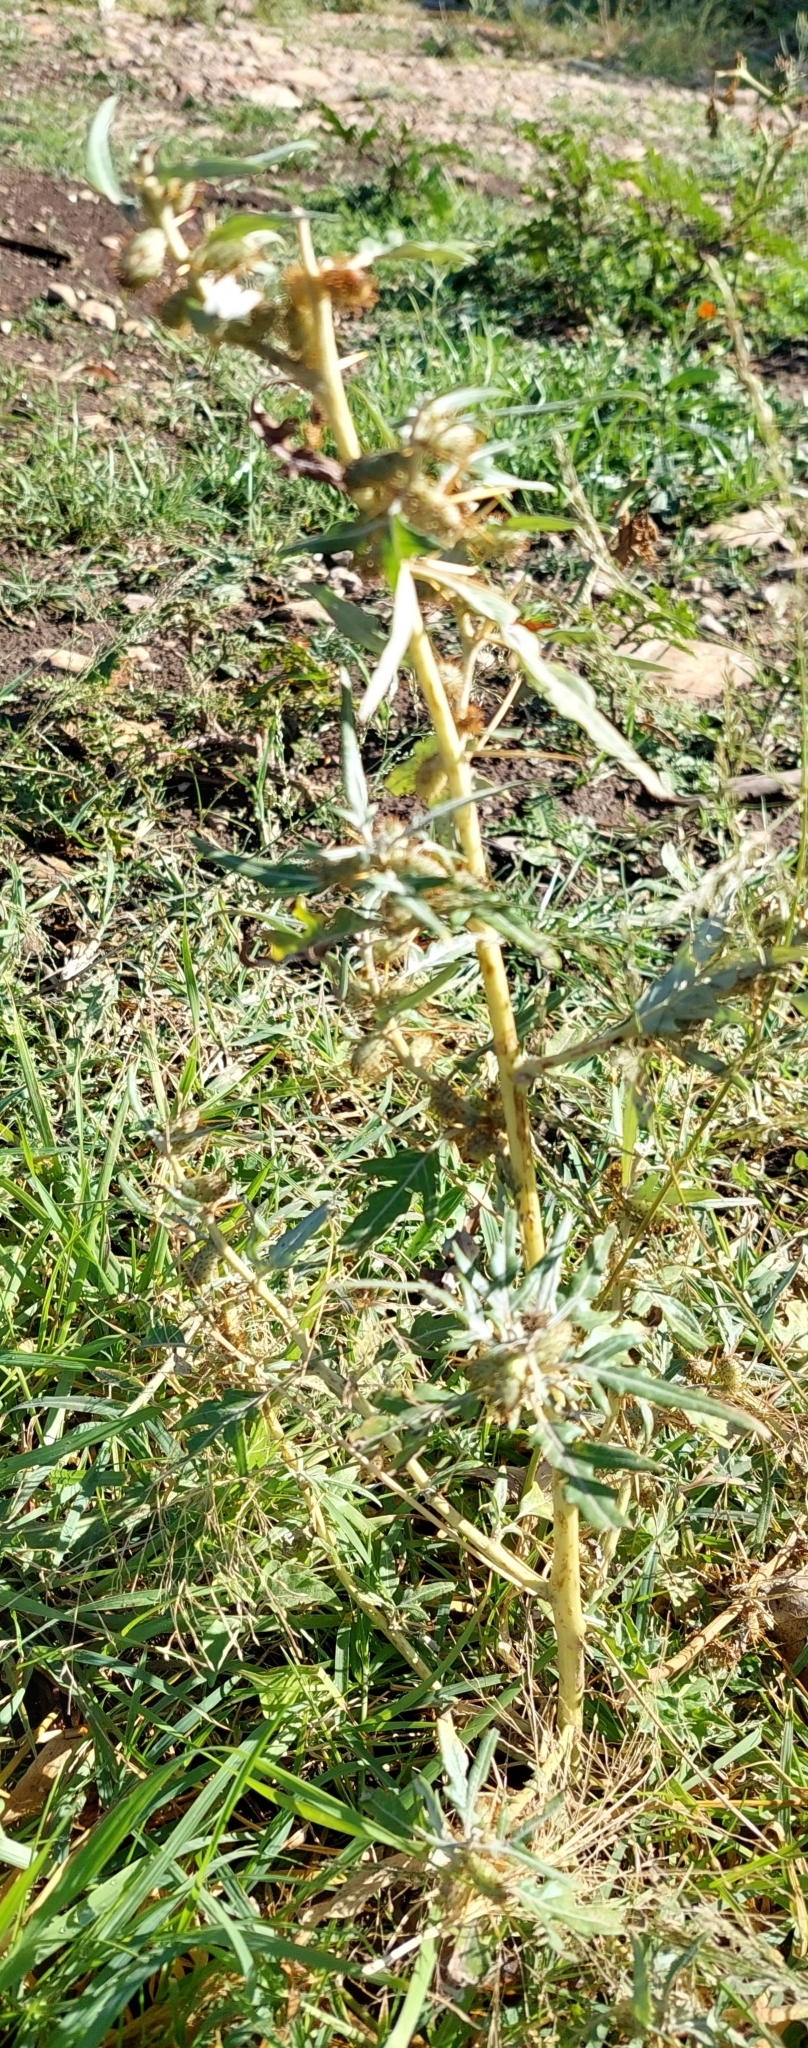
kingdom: Plantae
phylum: Tracheophyta
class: Magnoliopsida
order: Asterales
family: Asteraceae
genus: Xanthium
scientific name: Xanthium spinosum
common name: Spiny cocklebur
